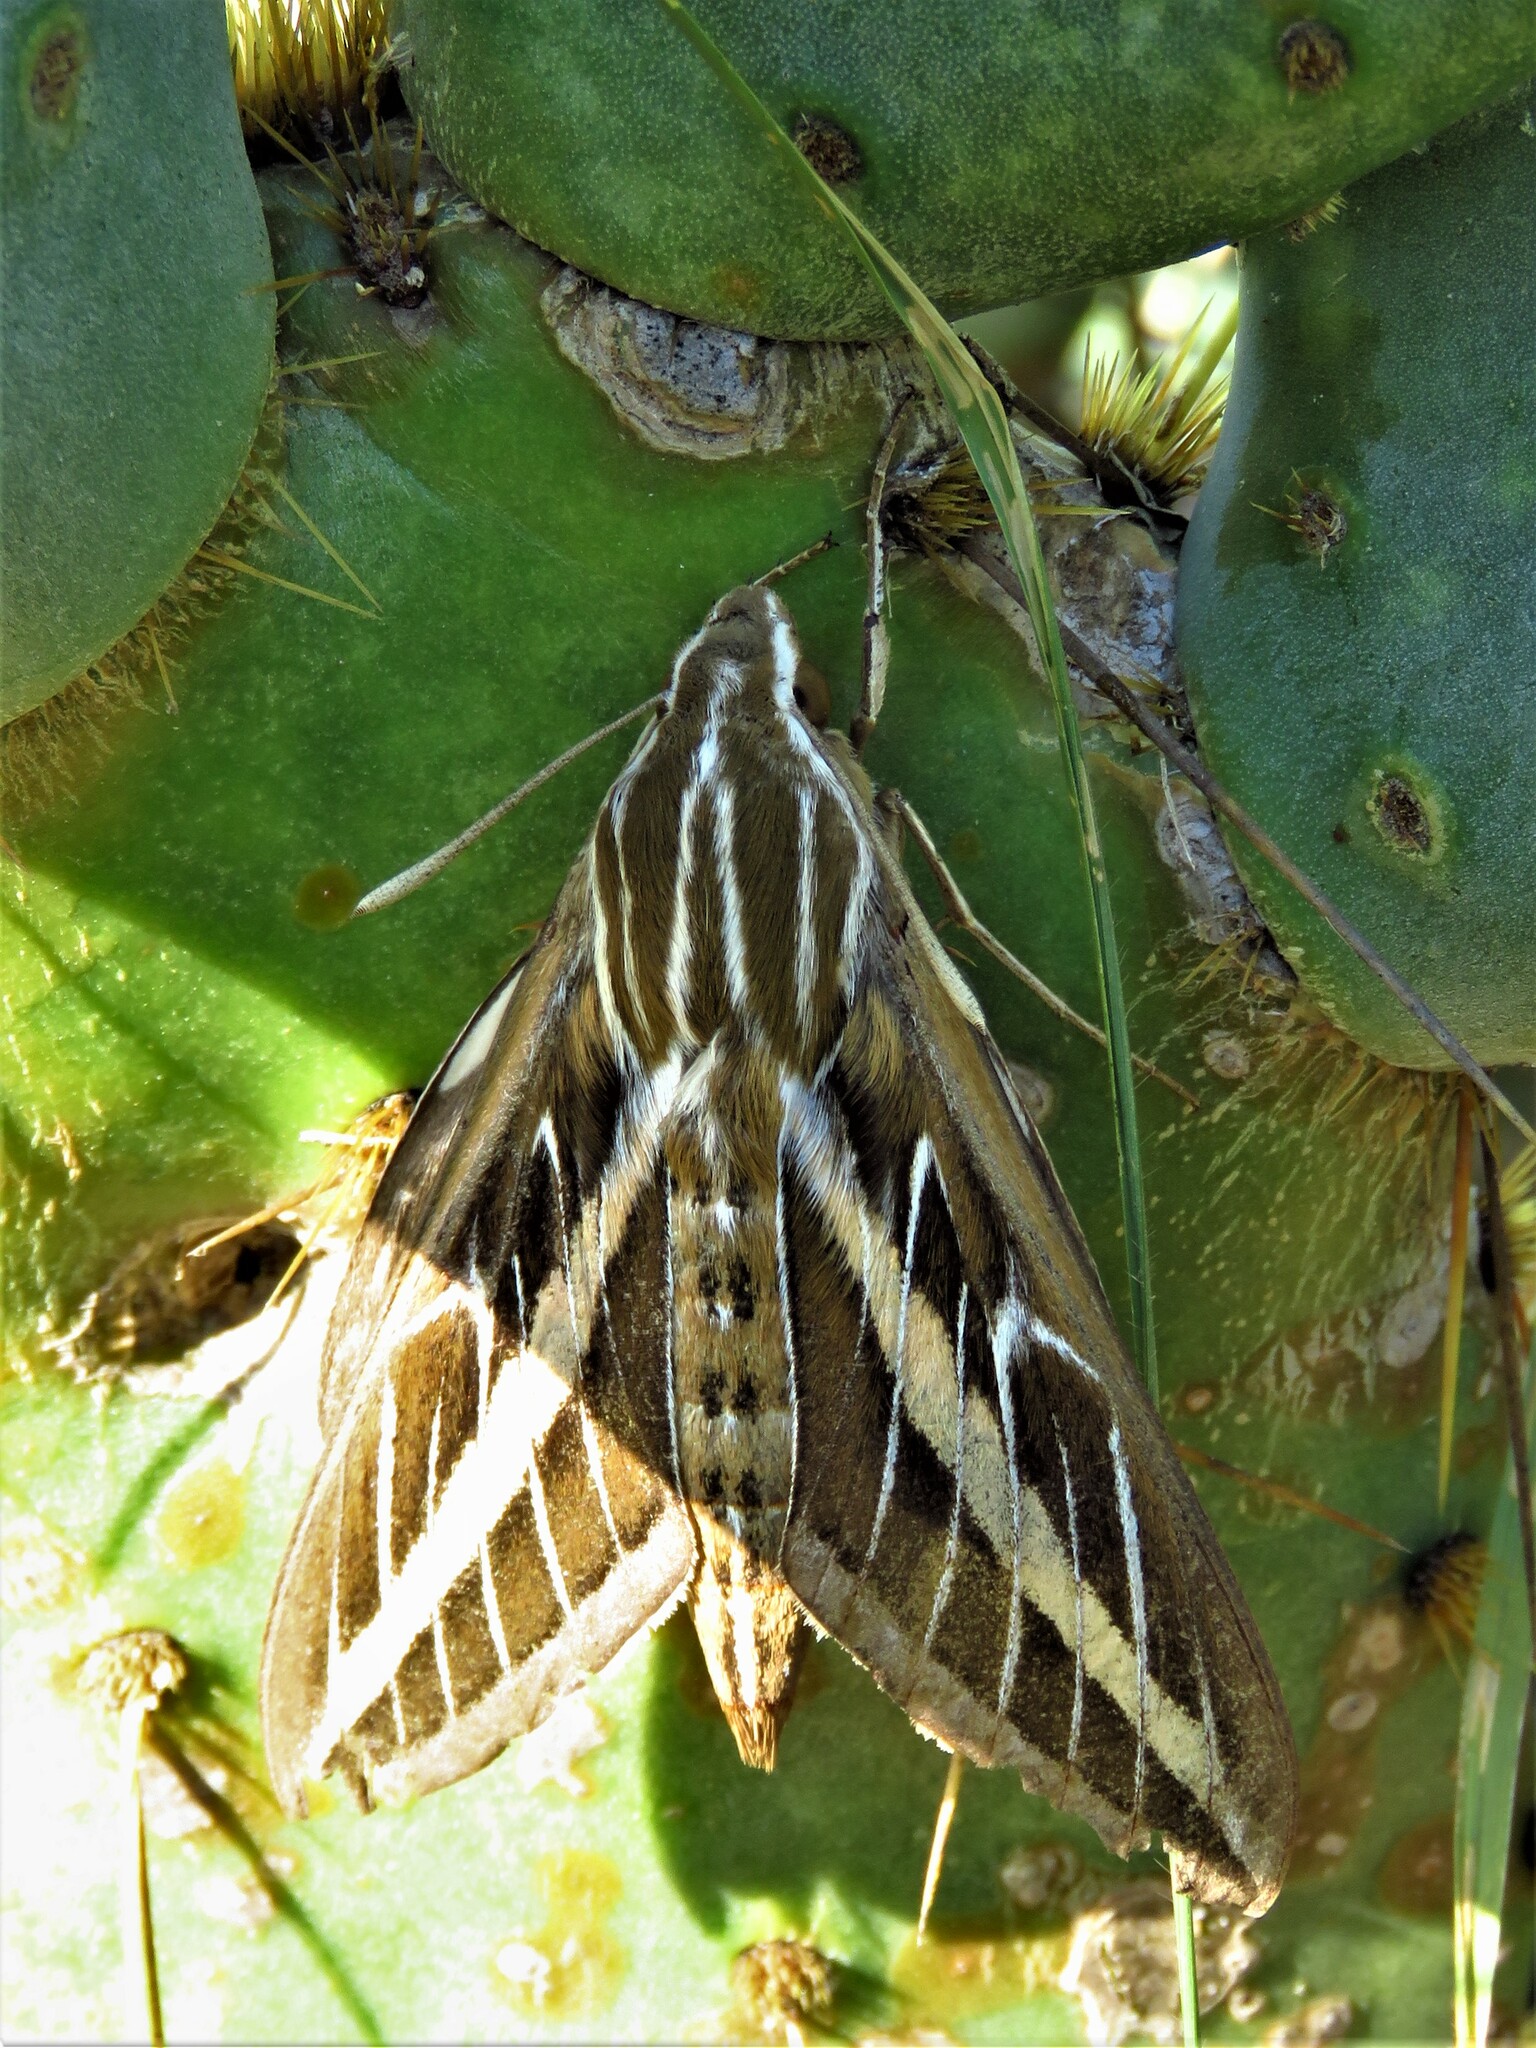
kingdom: Animalia
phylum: Arthropoda
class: Insecta
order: Lepidoptera
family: Sphingidae
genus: Hyles
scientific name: Hyles lineata
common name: White-lined sphinx
